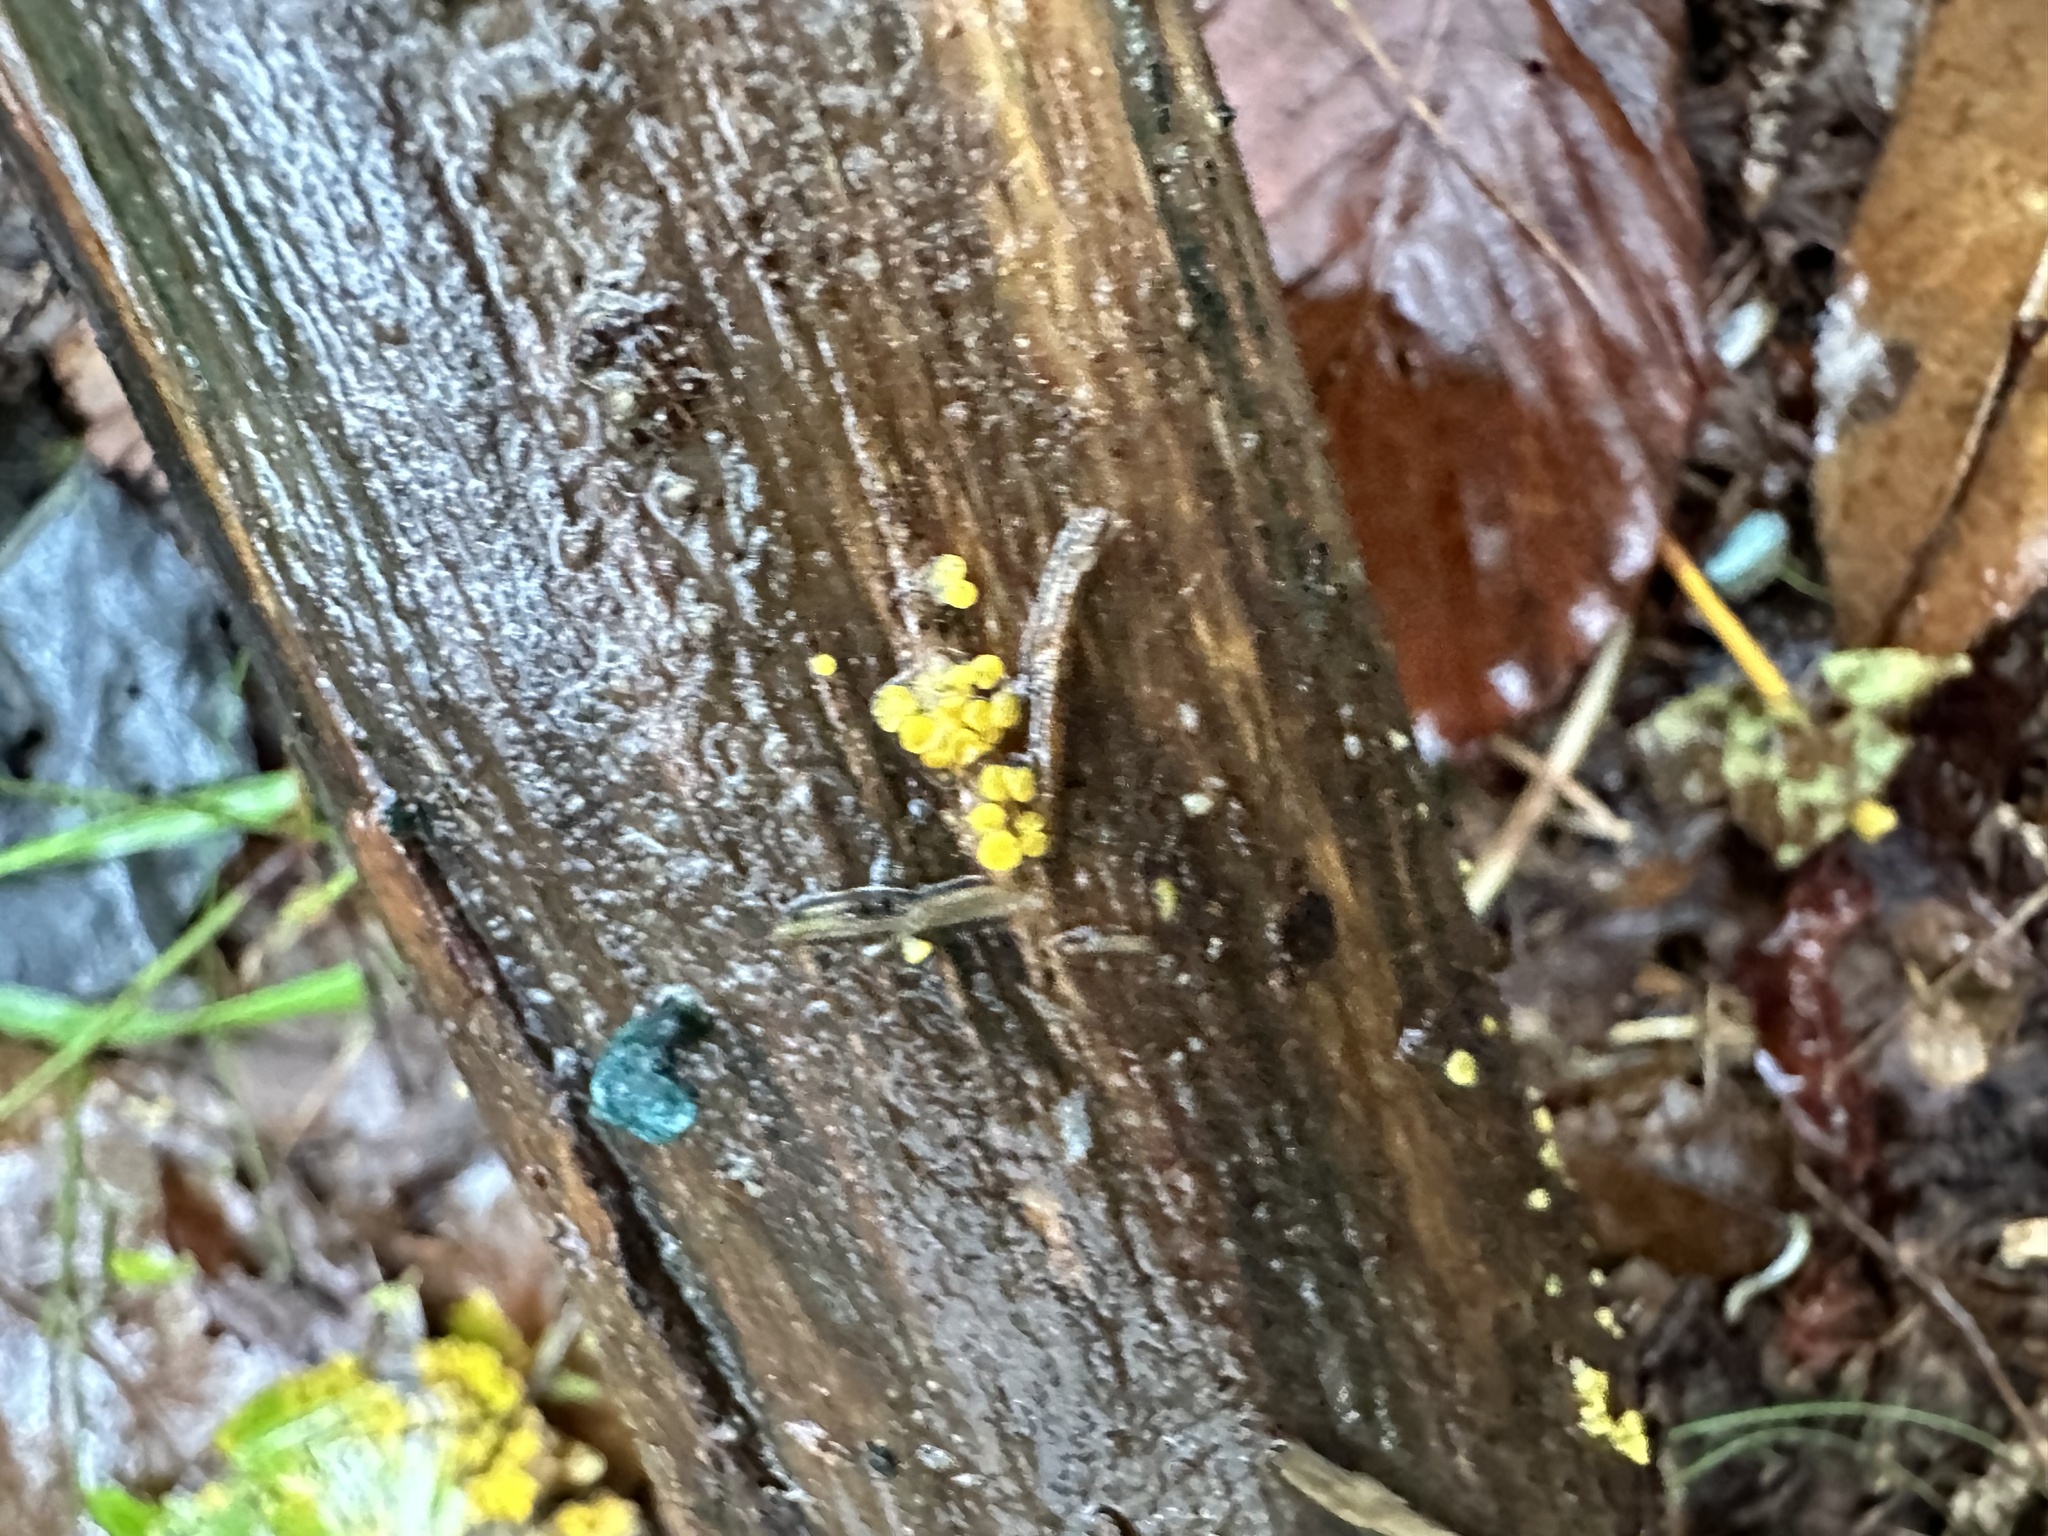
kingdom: Fungi
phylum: Ascomycota
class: Leotiomycetes
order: Helotiales
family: Pezizellaceae
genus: Calycina
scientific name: Calycina citrina
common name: Yellow fairy cups
